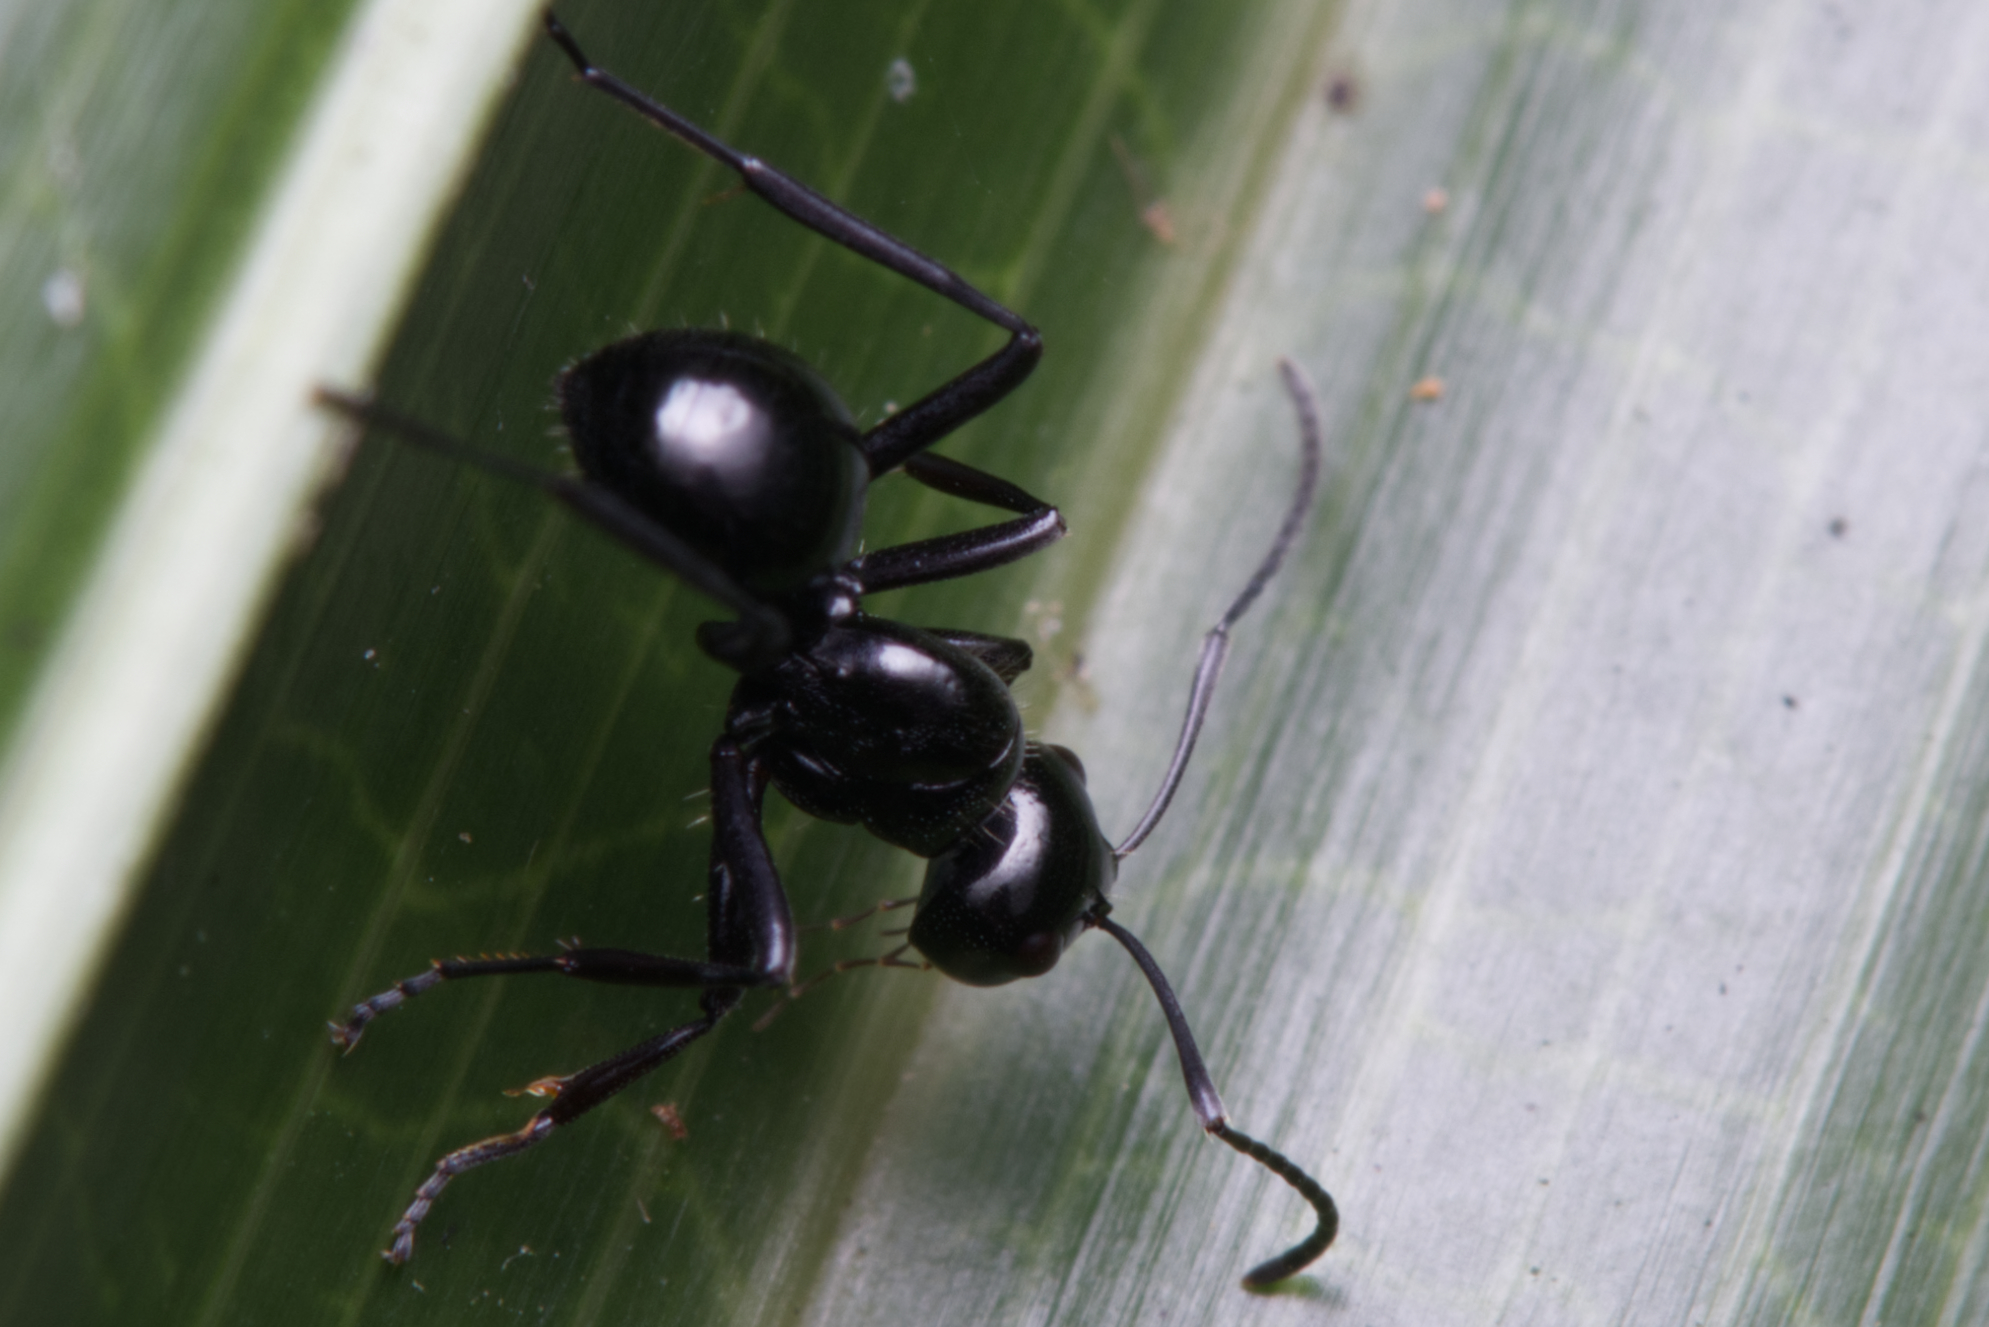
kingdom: Animalia
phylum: Arthropoda
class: Insecta
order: Hymenoptera
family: Formicidae
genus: Polyrhachis
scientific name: Polyrhachis pilosa
